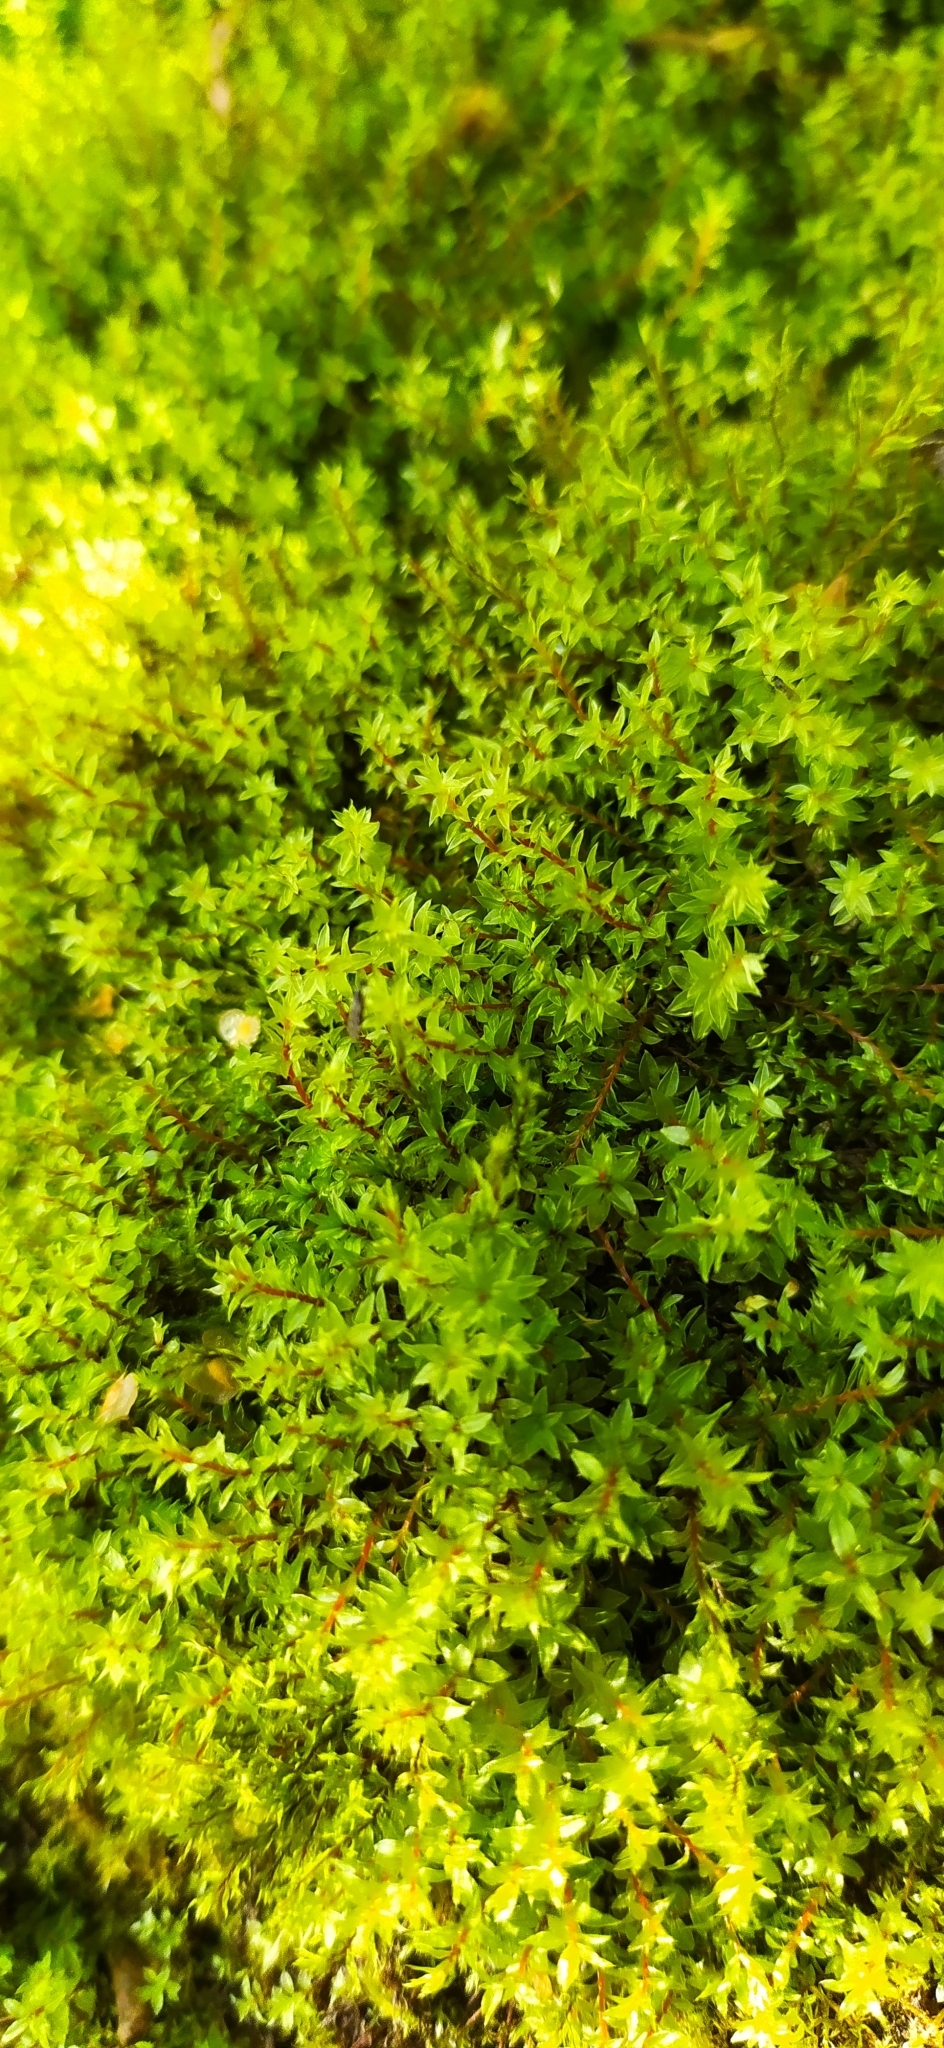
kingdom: Plantae
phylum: Bryophyta
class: Bryopsida
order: Bryales
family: Bryaceae
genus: Ptychostomum
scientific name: Ptychostomum pseudotriquetrum
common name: Long-leaved thread moss
